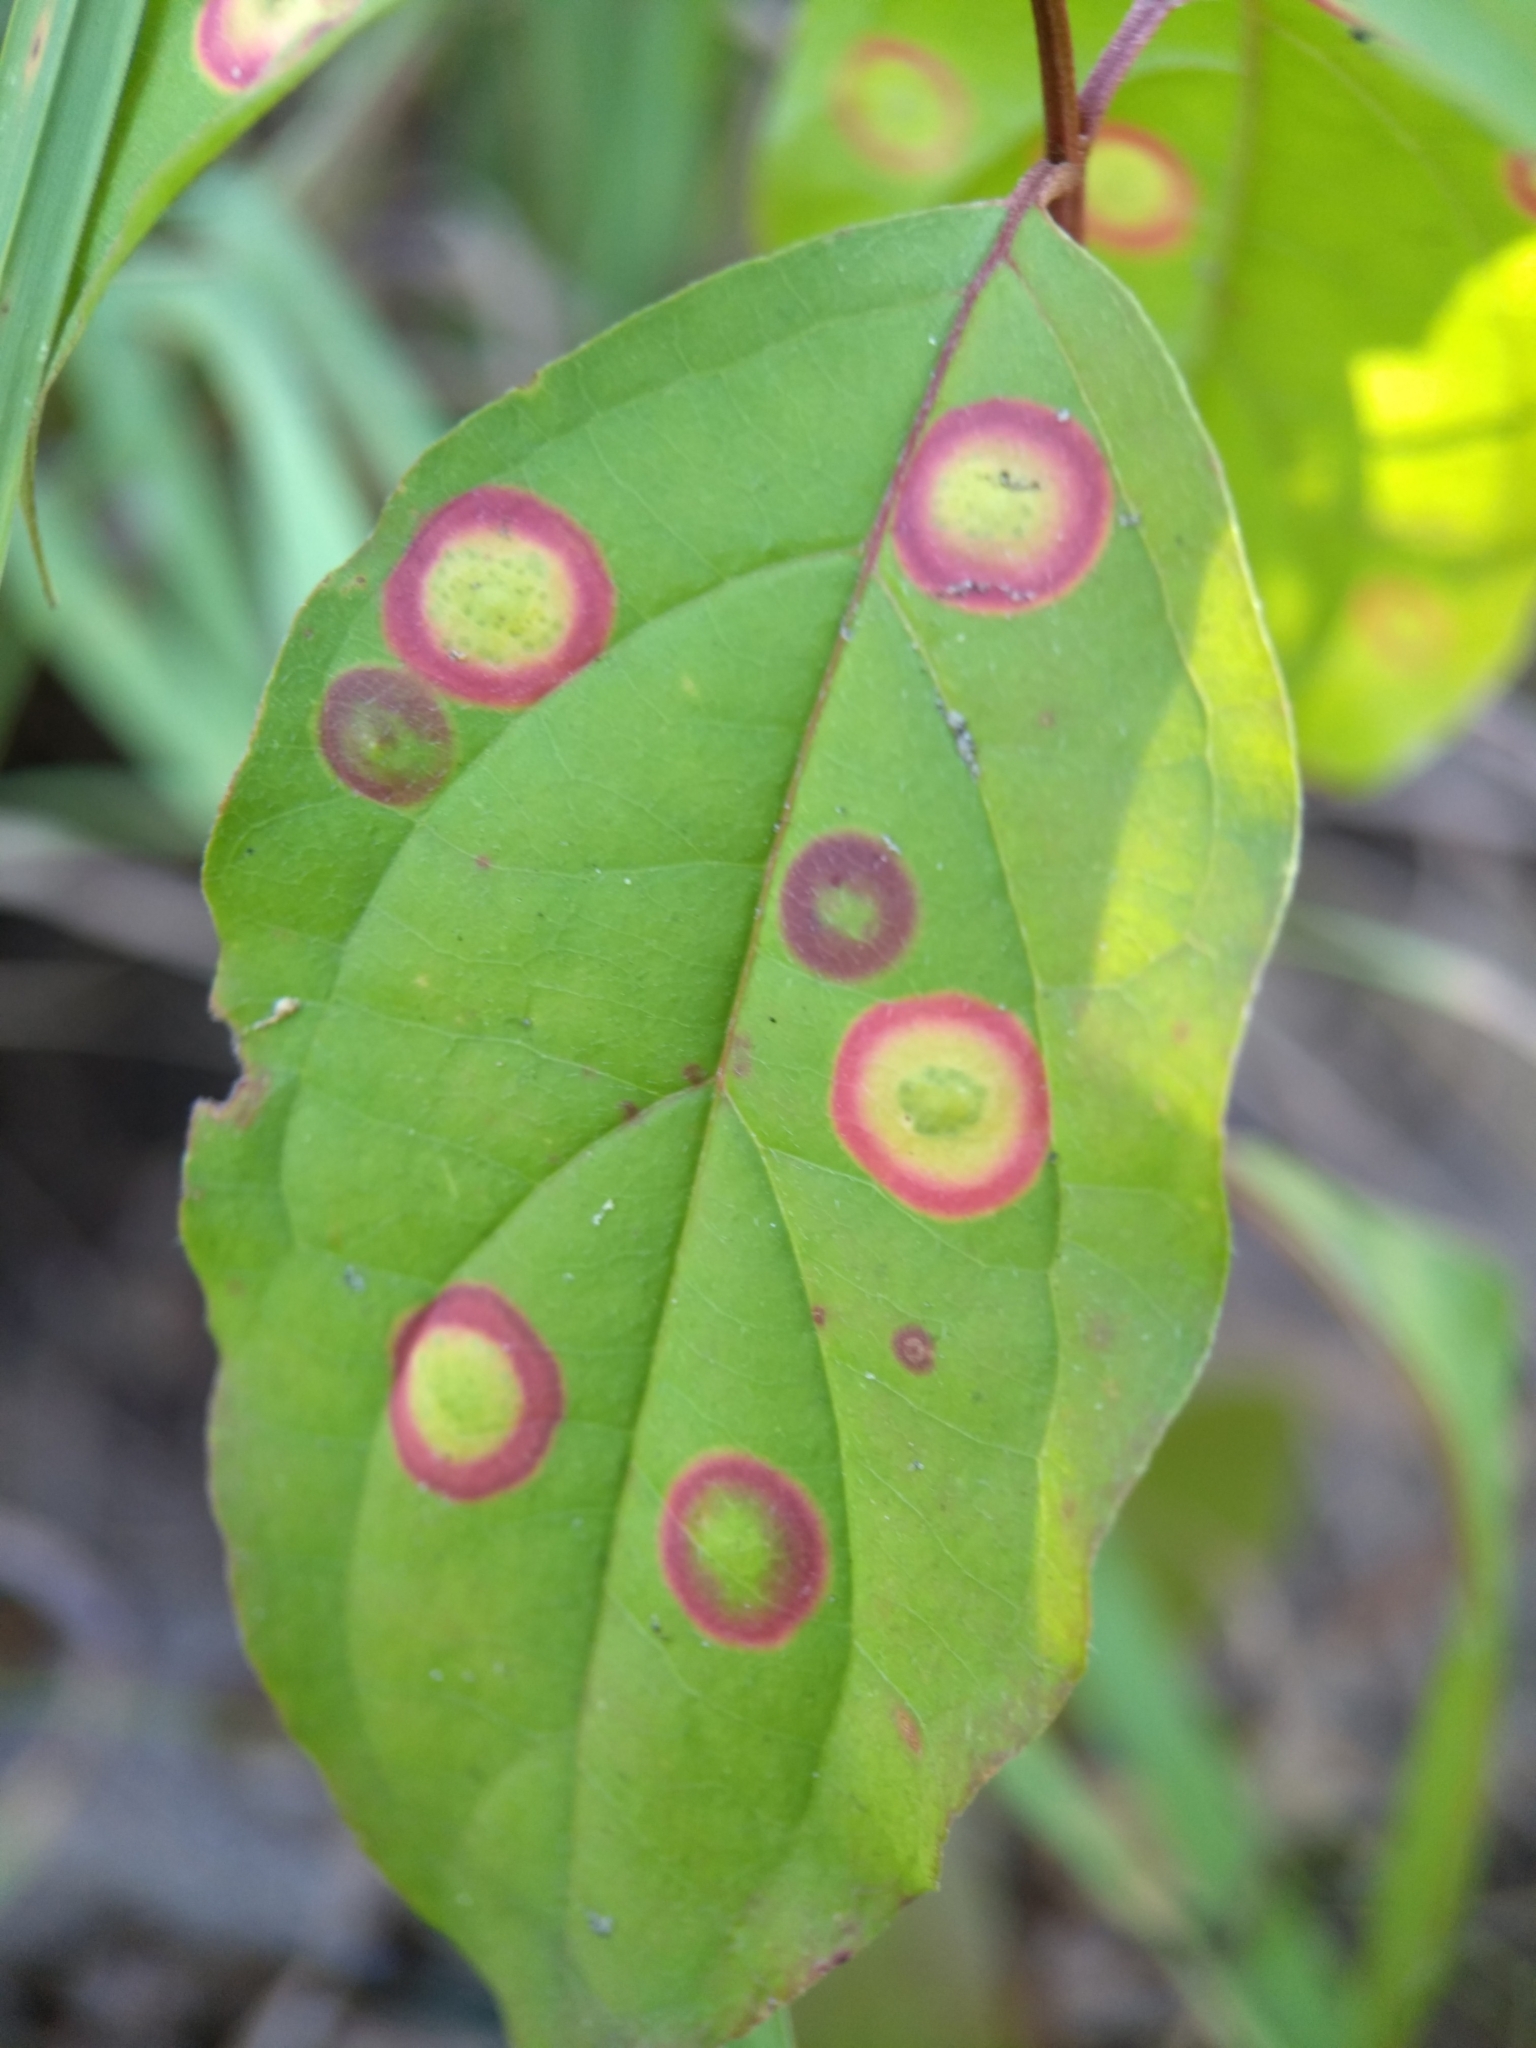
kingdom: Animalia
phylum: Arthropoda
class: Insecta
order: Diptera
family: Cecidomyiidae
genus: Parallelodiplosis
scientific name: Parallelodiplosis subtruncata
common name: Dogwood eyespot gall midge
